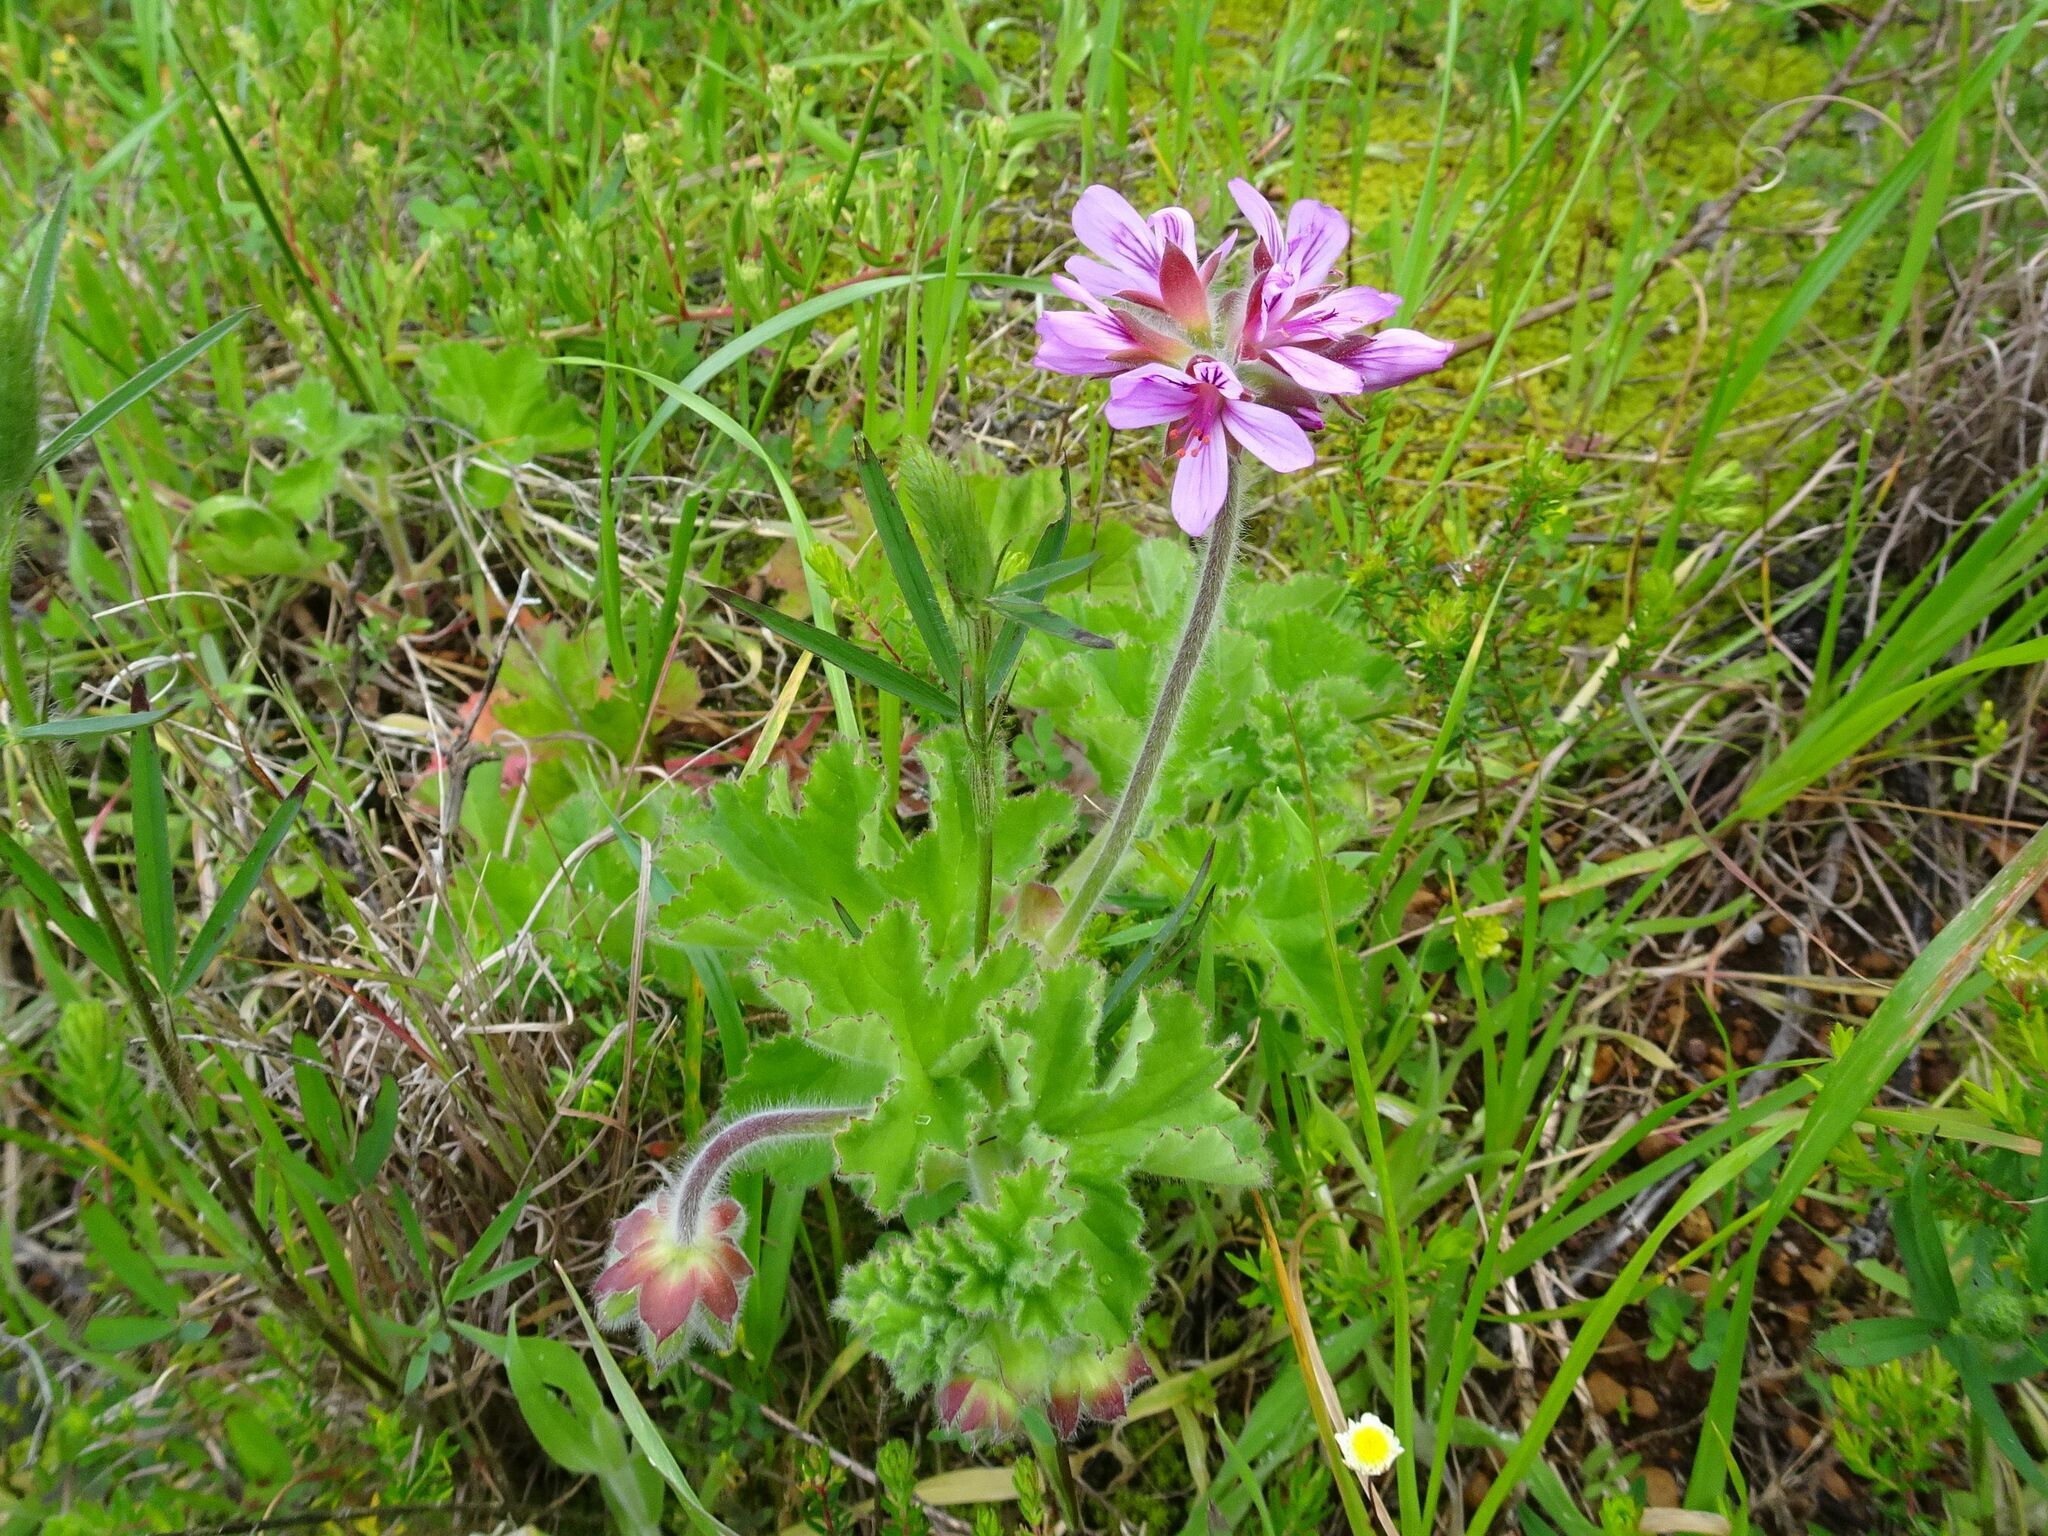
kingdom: Plantae
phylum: Tracheophyta
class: Magnoliopsida
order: Geraniales
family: Geraniaceae
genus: Pelargonium
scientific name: Pelargonium capitatum
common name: Rose scented geranium
